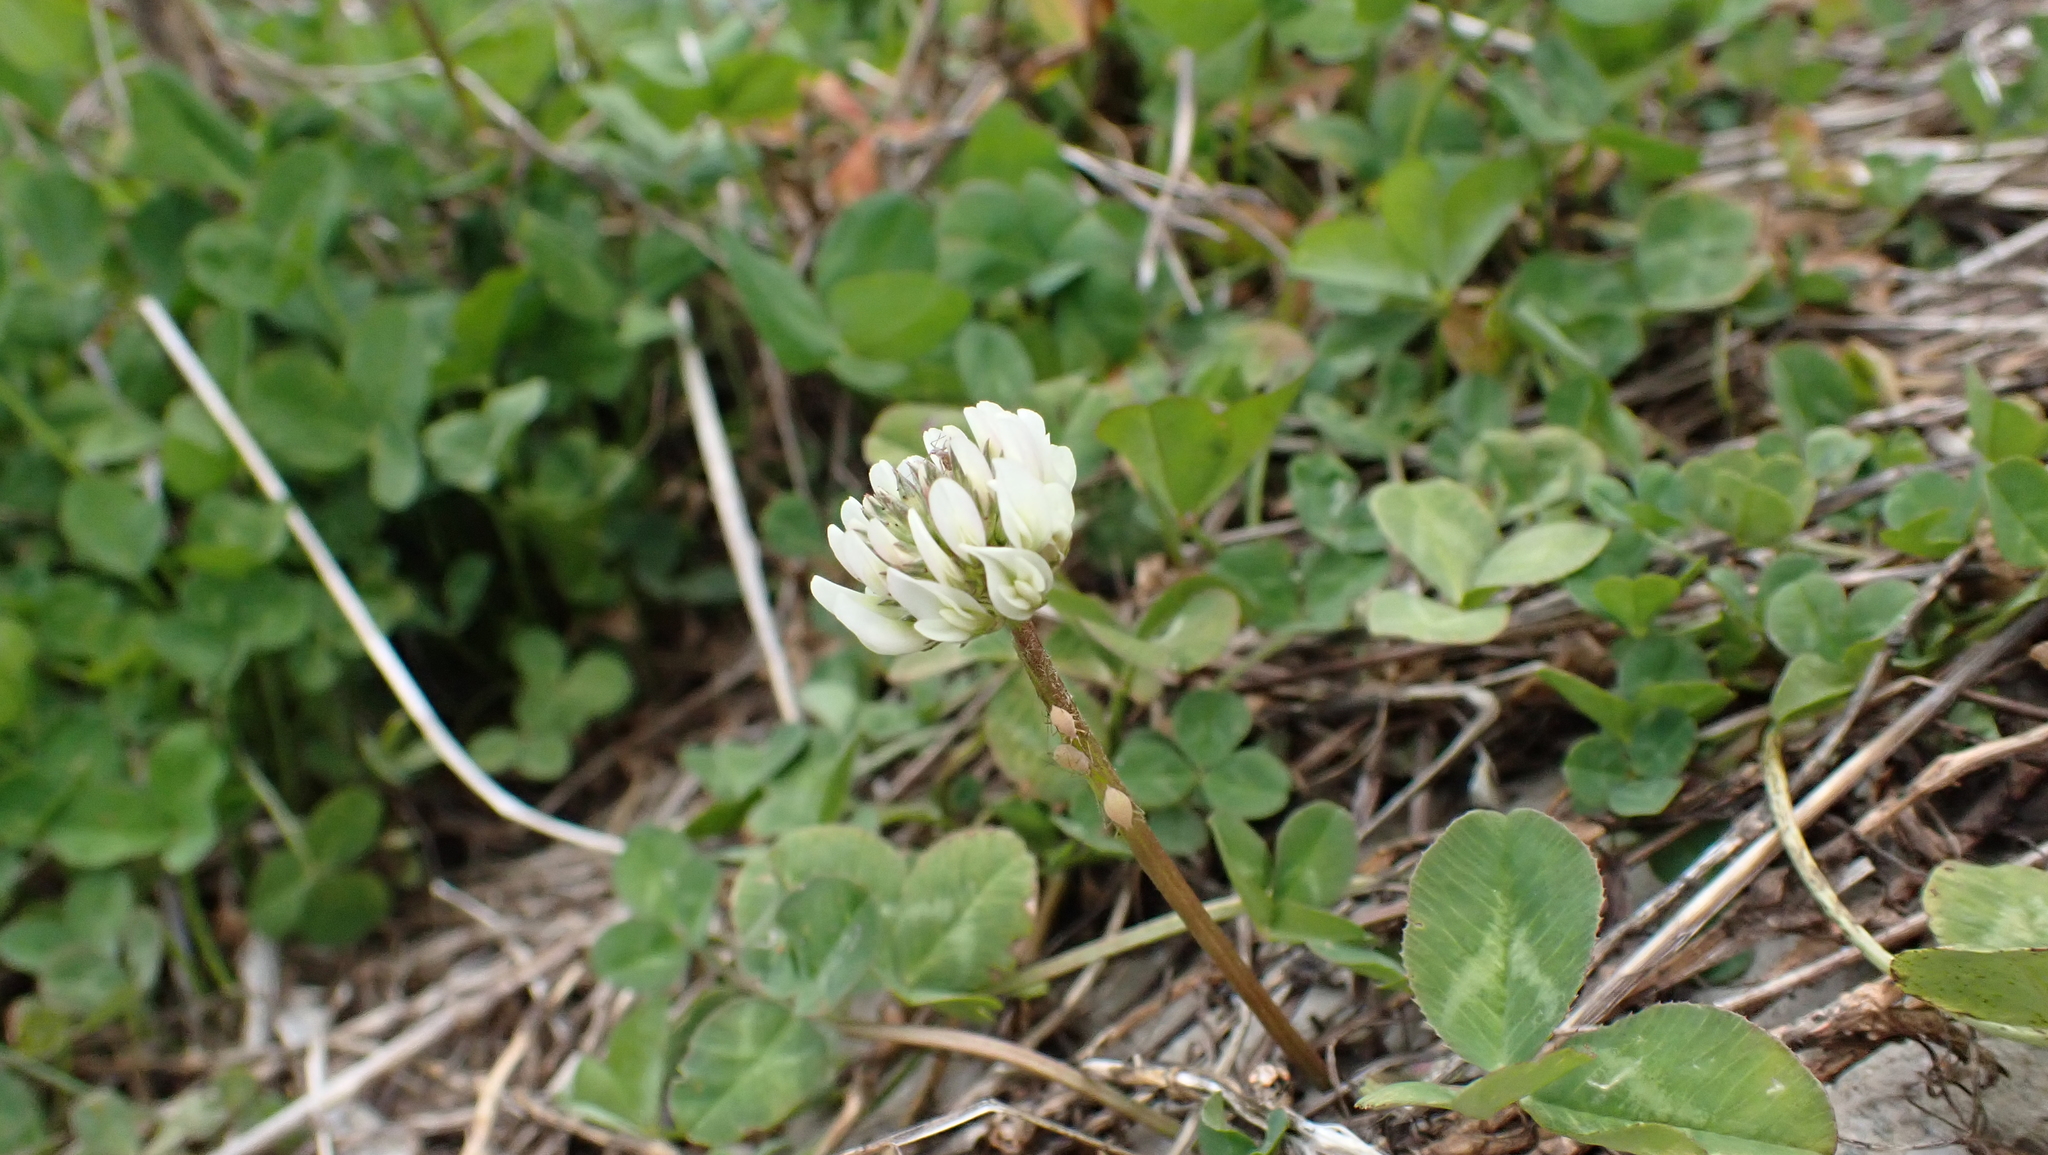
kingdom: Plantae
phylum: Tracheophyta
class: Magnoliopsida
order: Fabales
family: Fabaceae
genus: Trifolium
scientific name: Trifolium repens
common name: White clover
